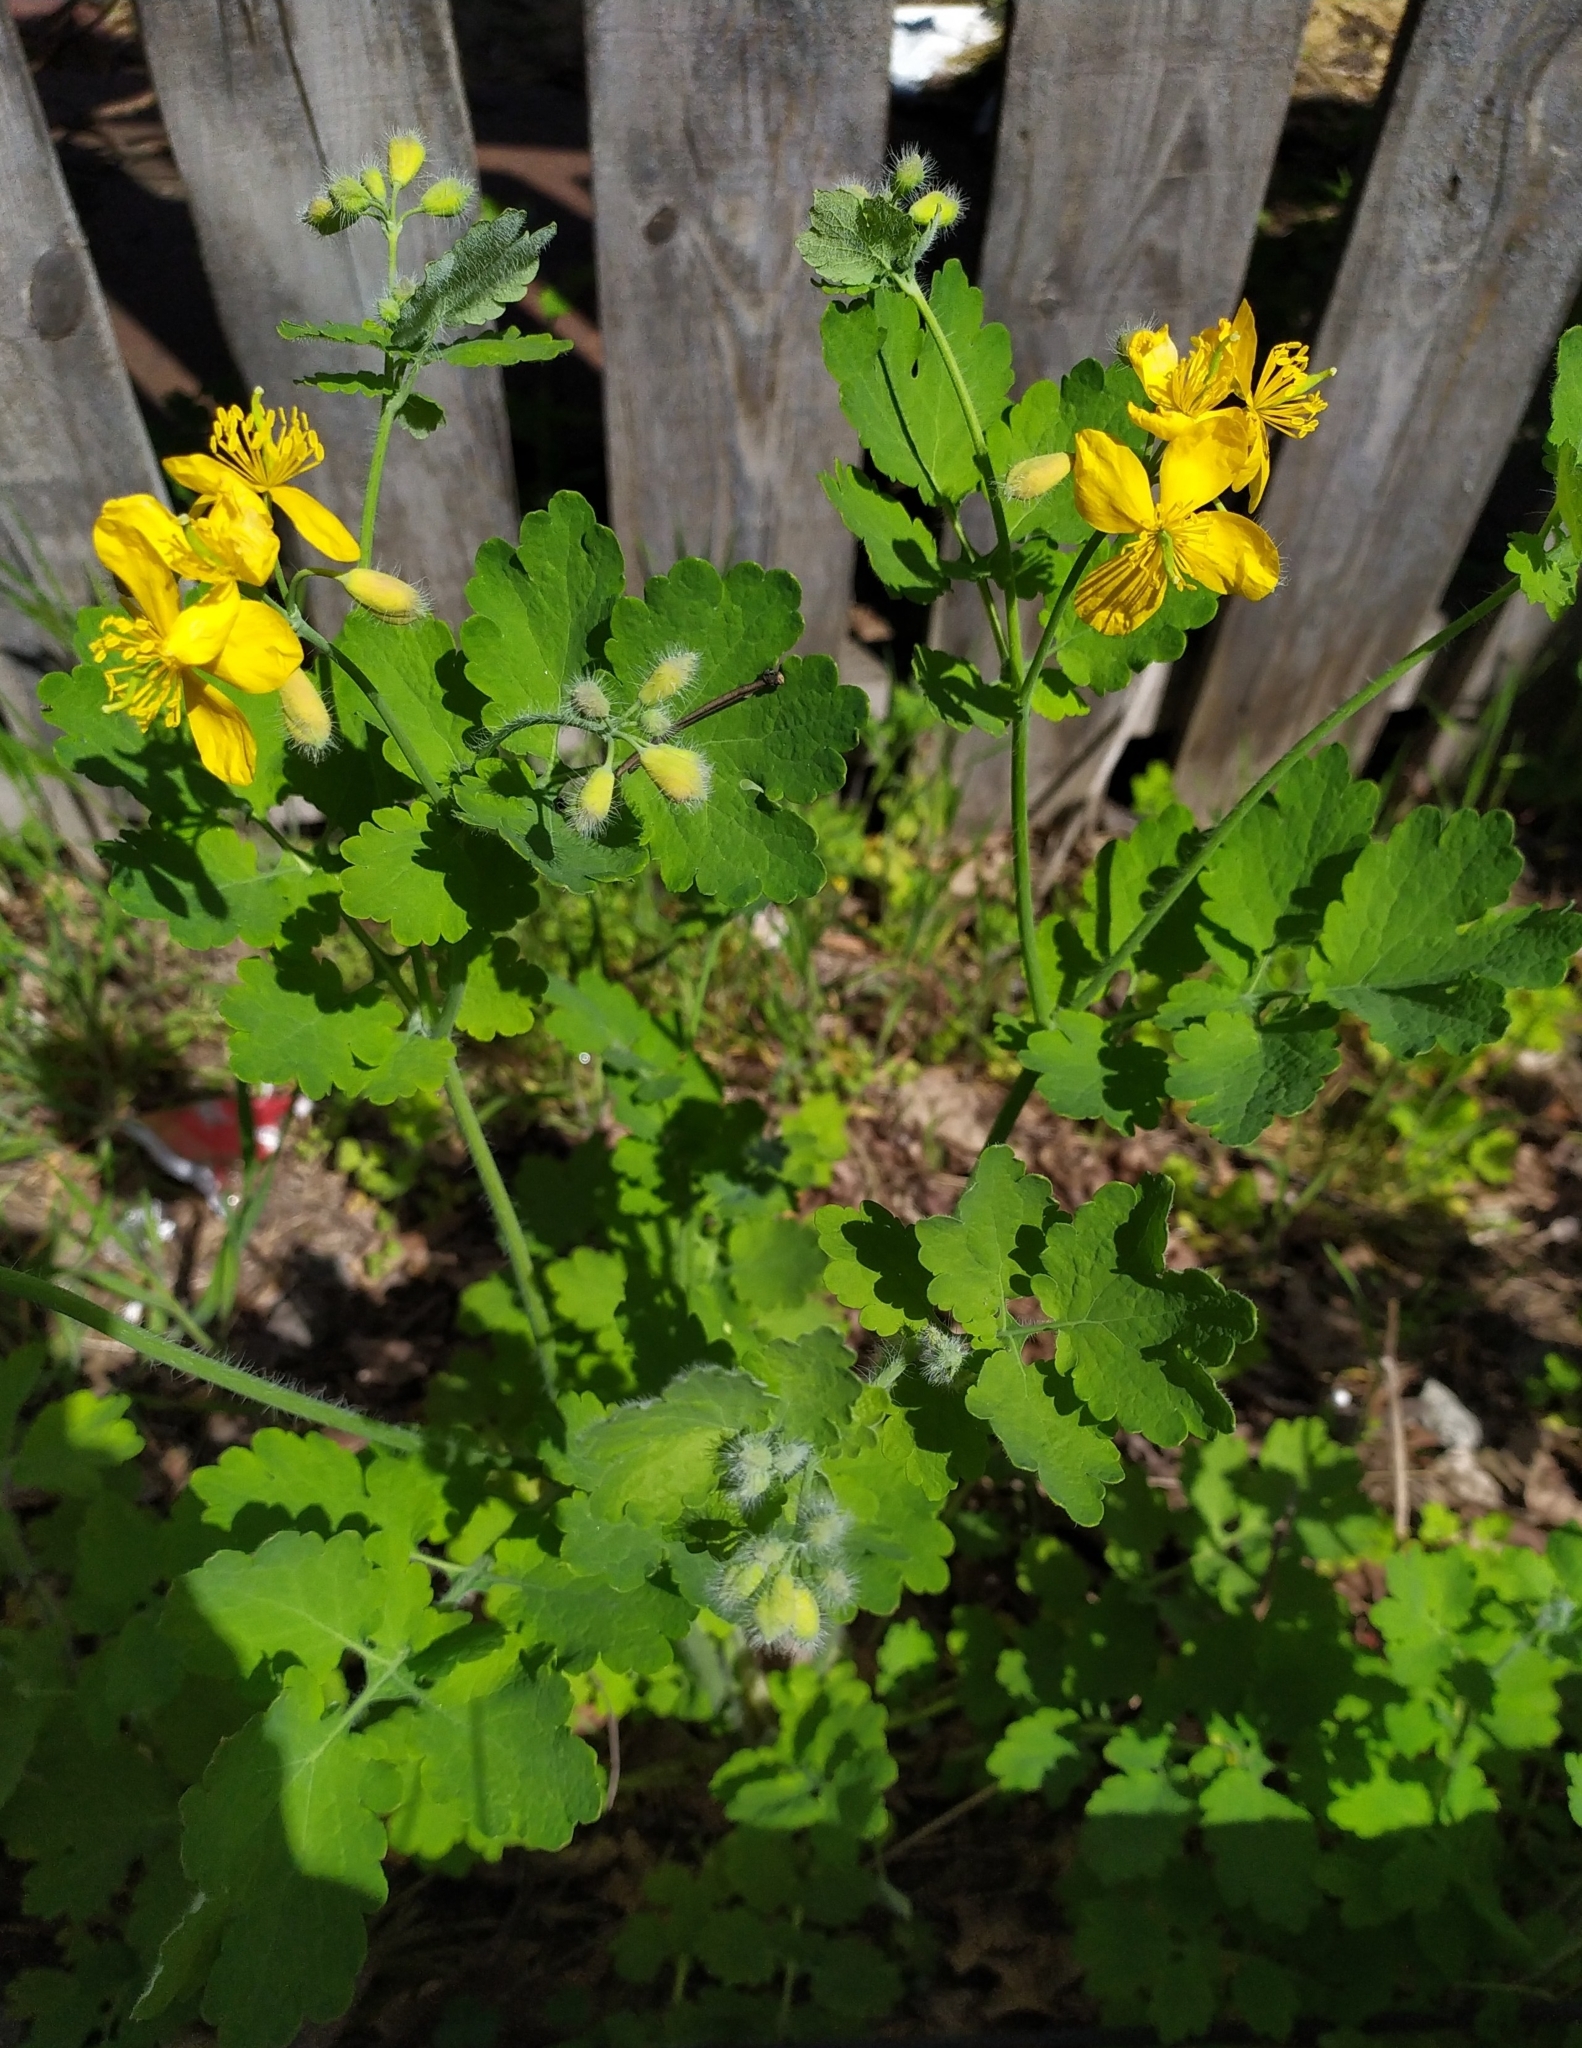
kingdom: Plantae
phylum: Tracheophyta
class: Magnoliopsida
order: Ranunculales
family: Papaveraceae
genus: Chelidonium
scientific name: Chelidonium majus
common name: Greater celandine
